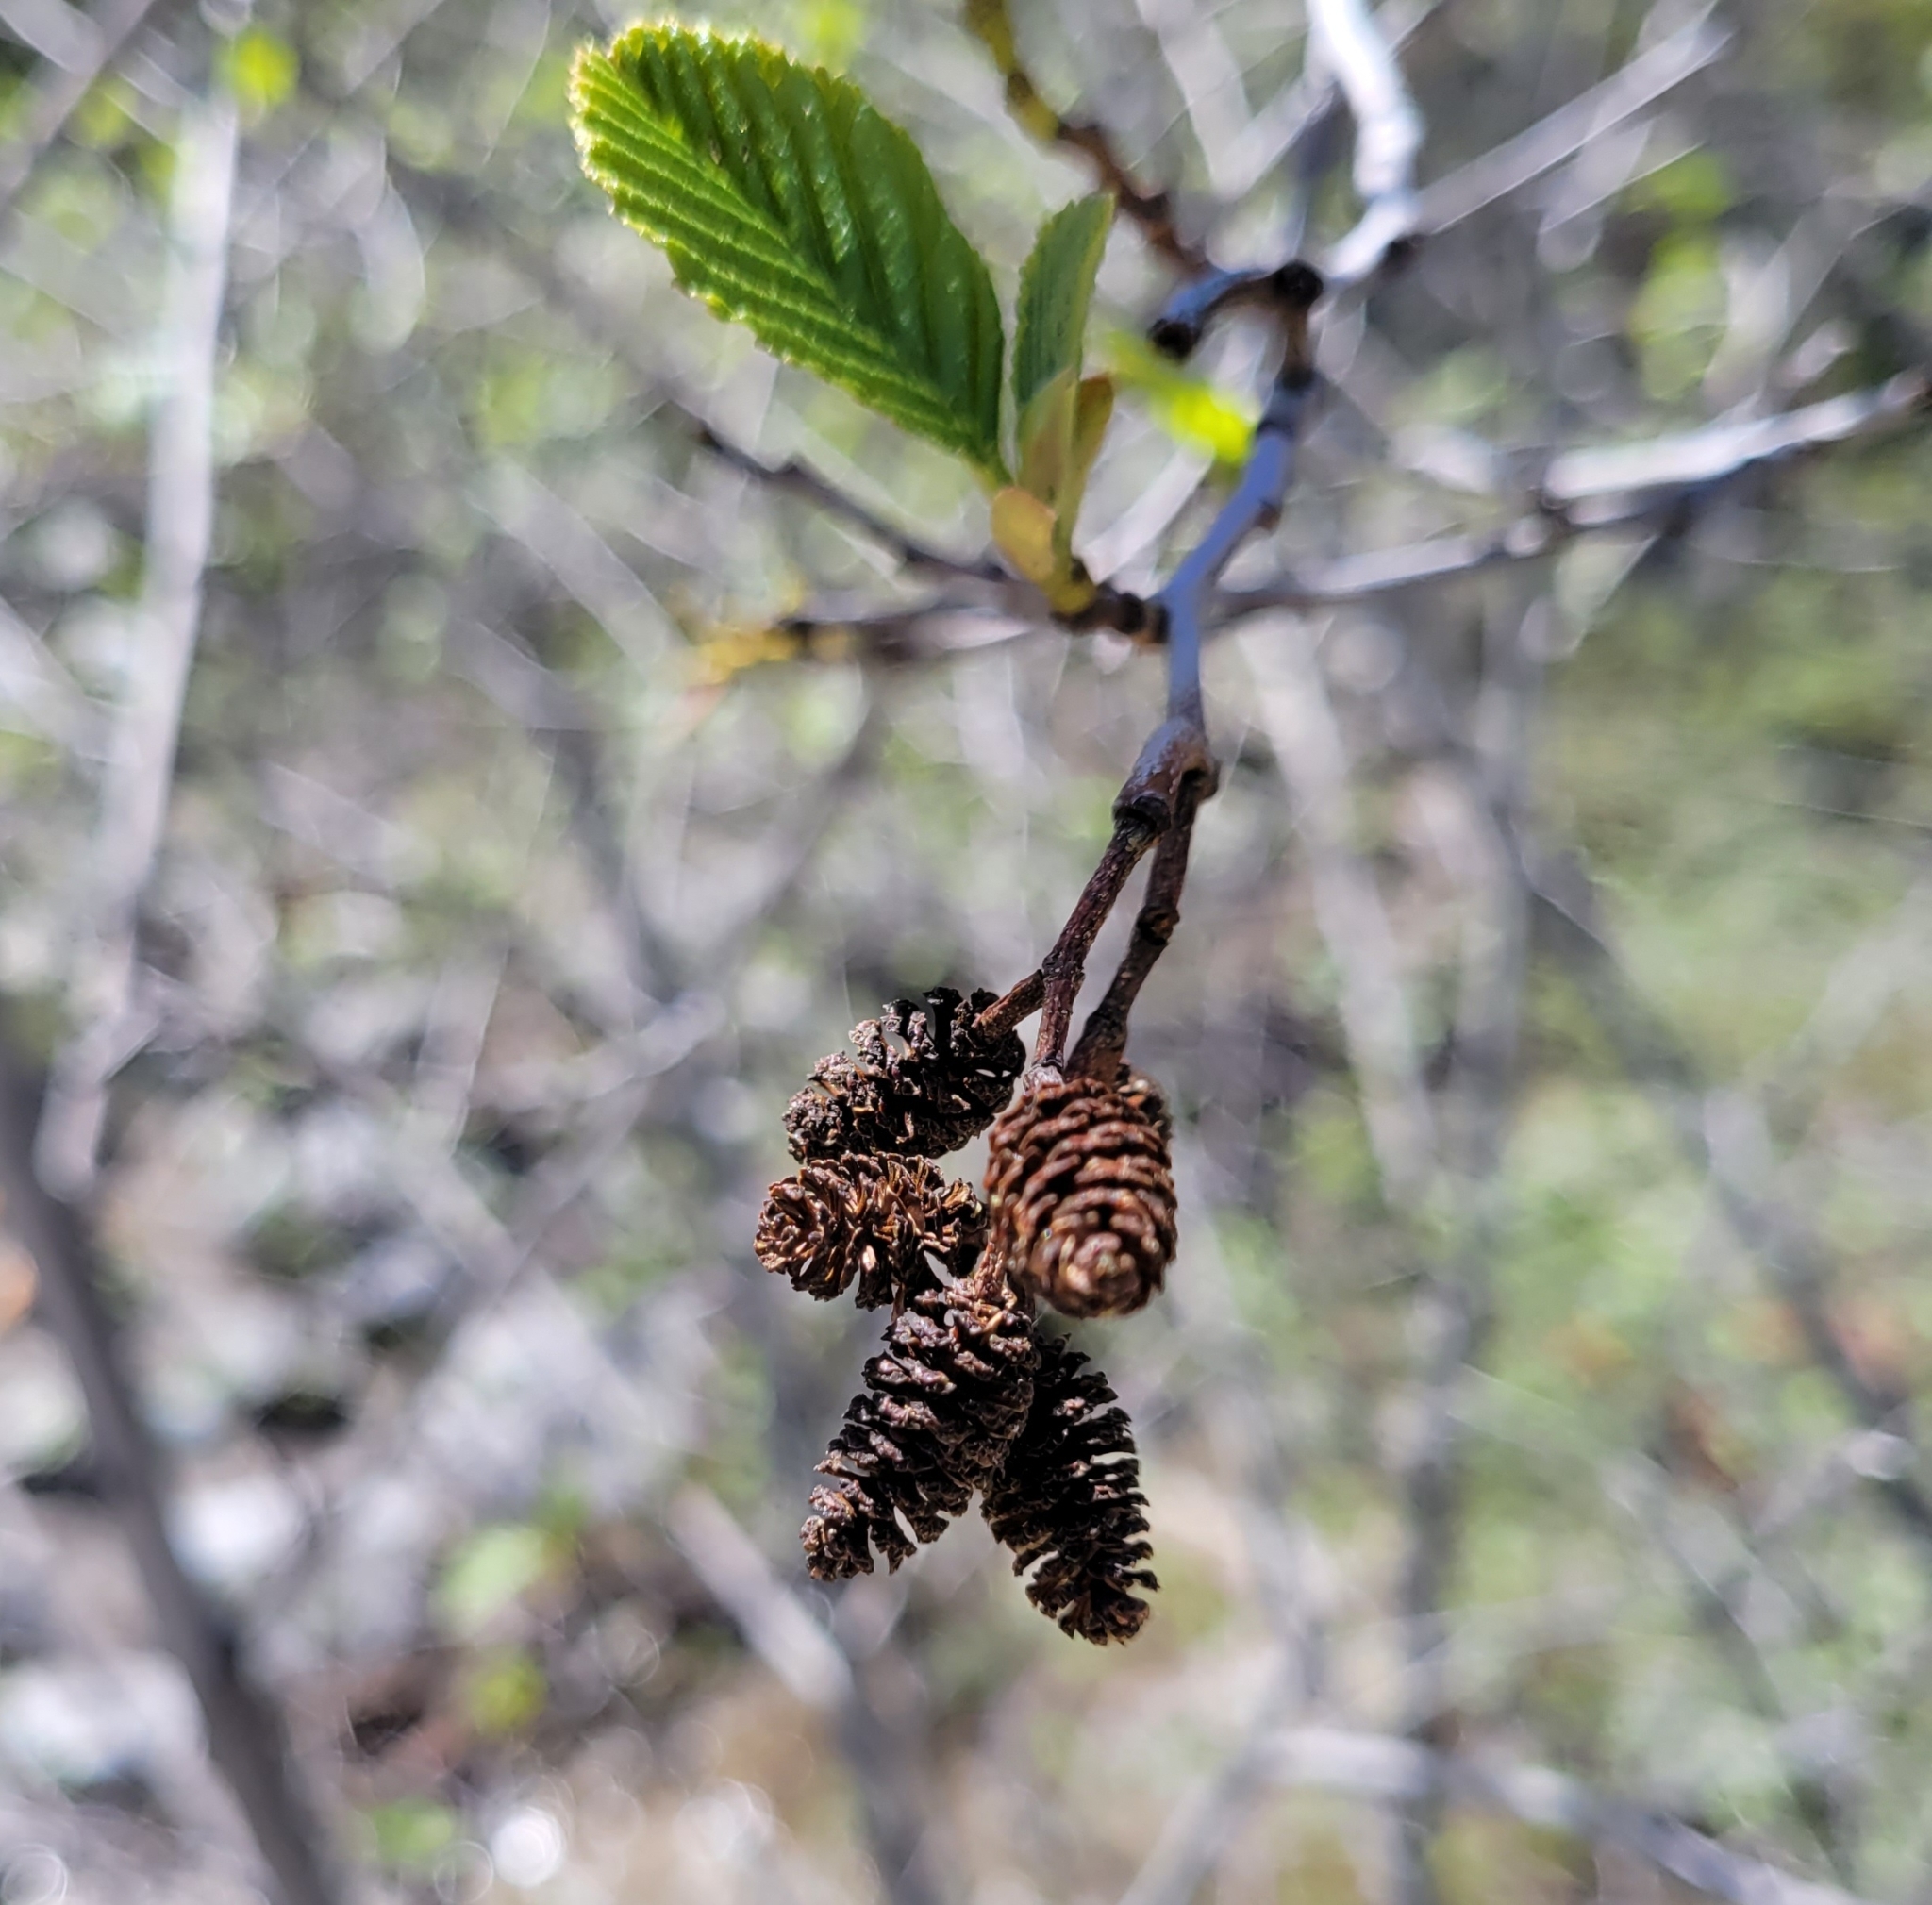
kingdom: Plantae
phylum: Tracheophyta
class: Magnoliopsida
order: Fagales
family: Betulaceae
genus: Alnus
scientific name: Alnus rhombifolia
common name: California alder
